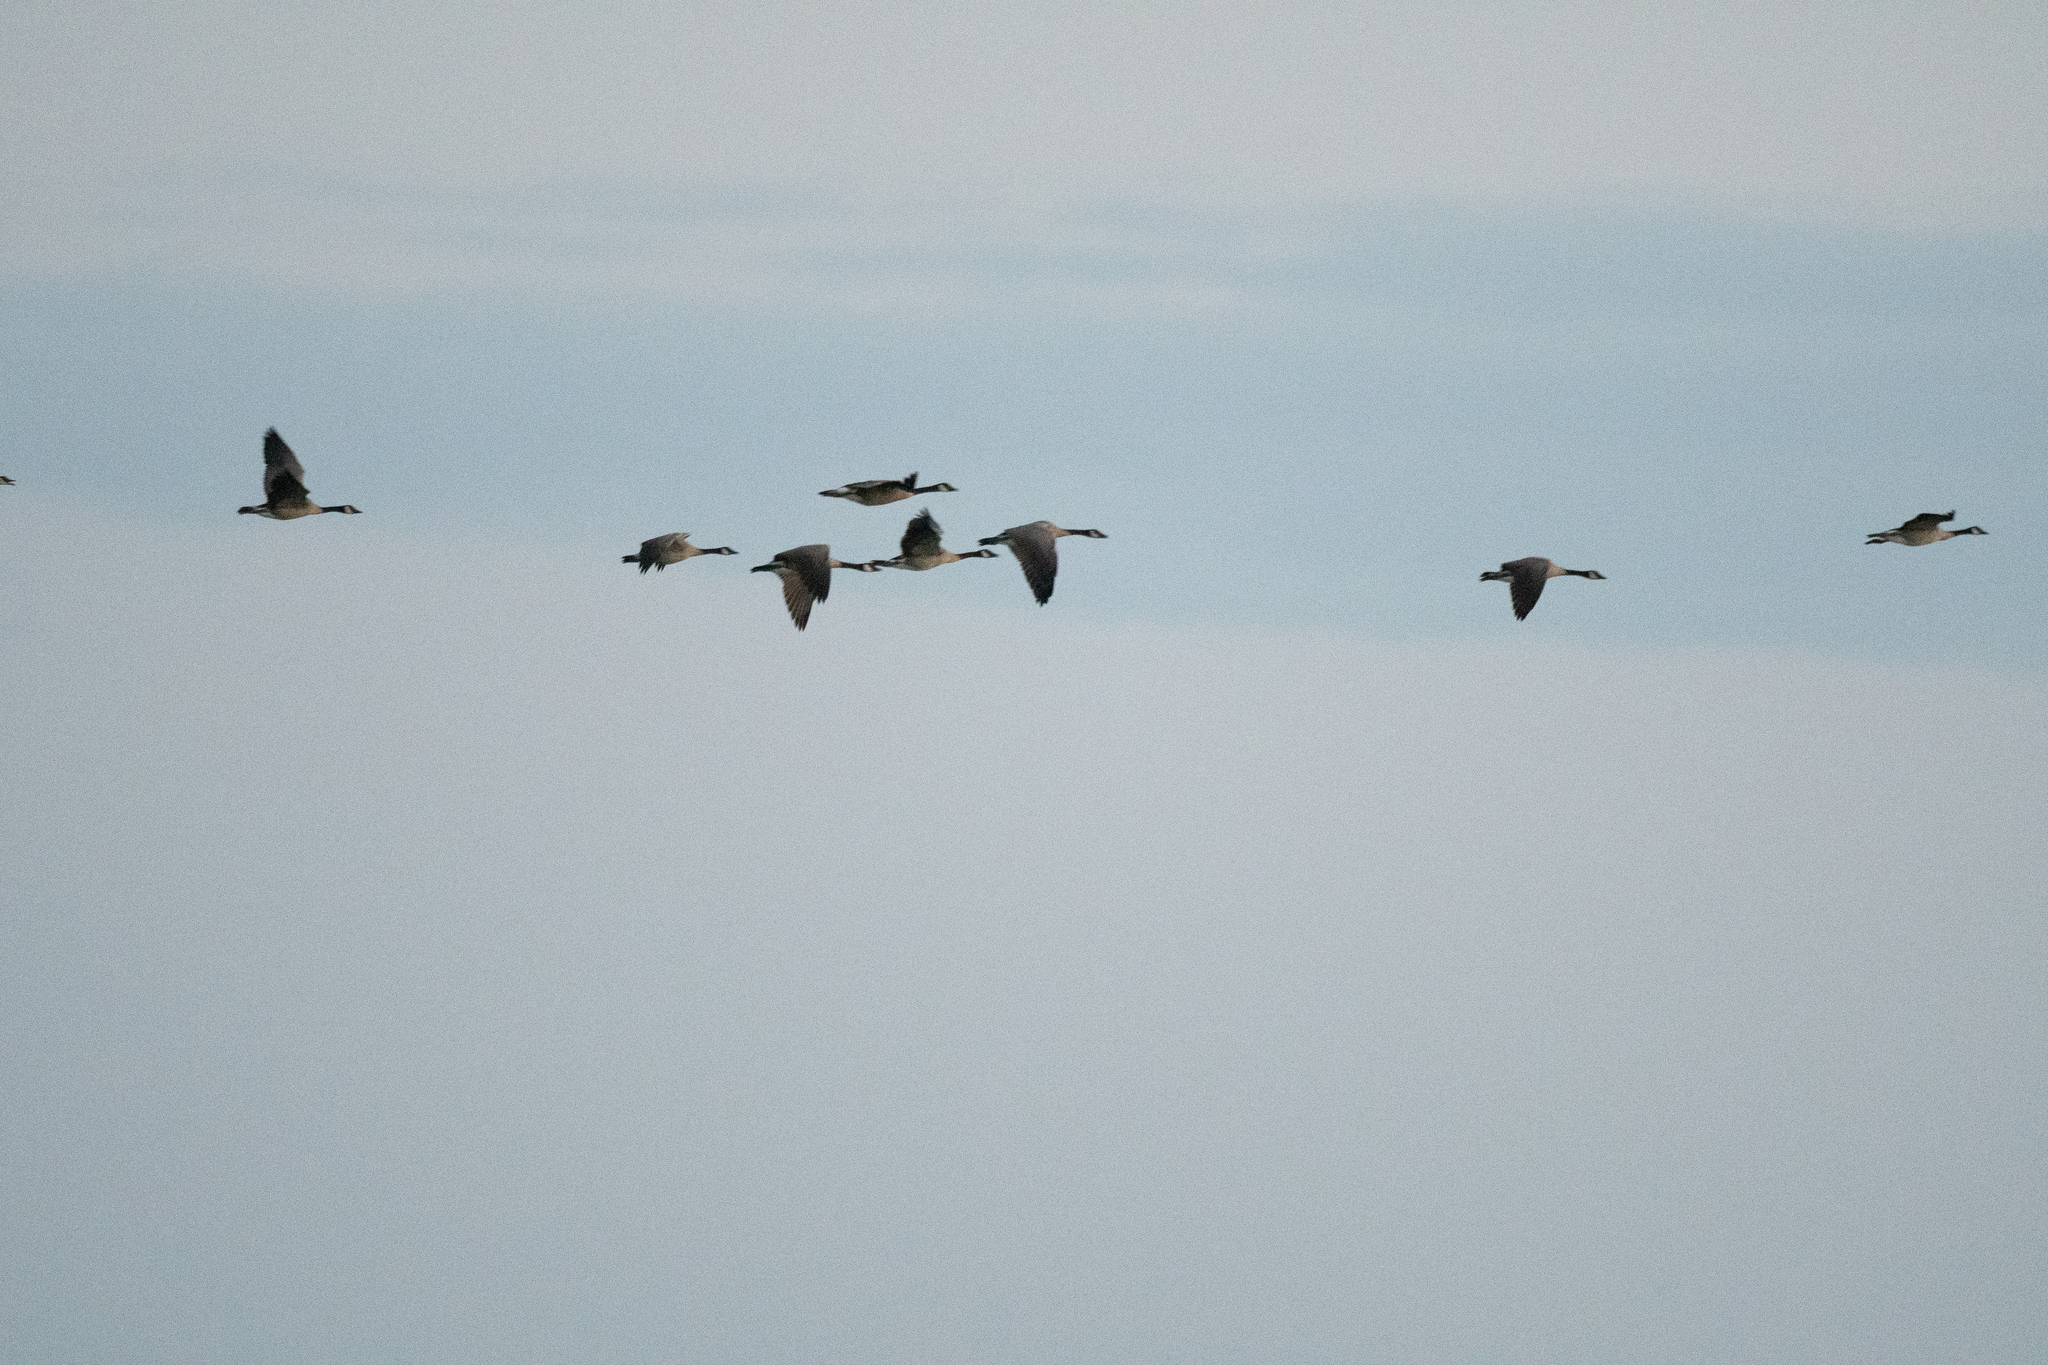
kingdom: Animalia
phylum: Chordata
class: Aves
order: Anseriformes
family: Anatidae
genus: Branta
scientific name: Branta canadensis
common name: Canada goose
